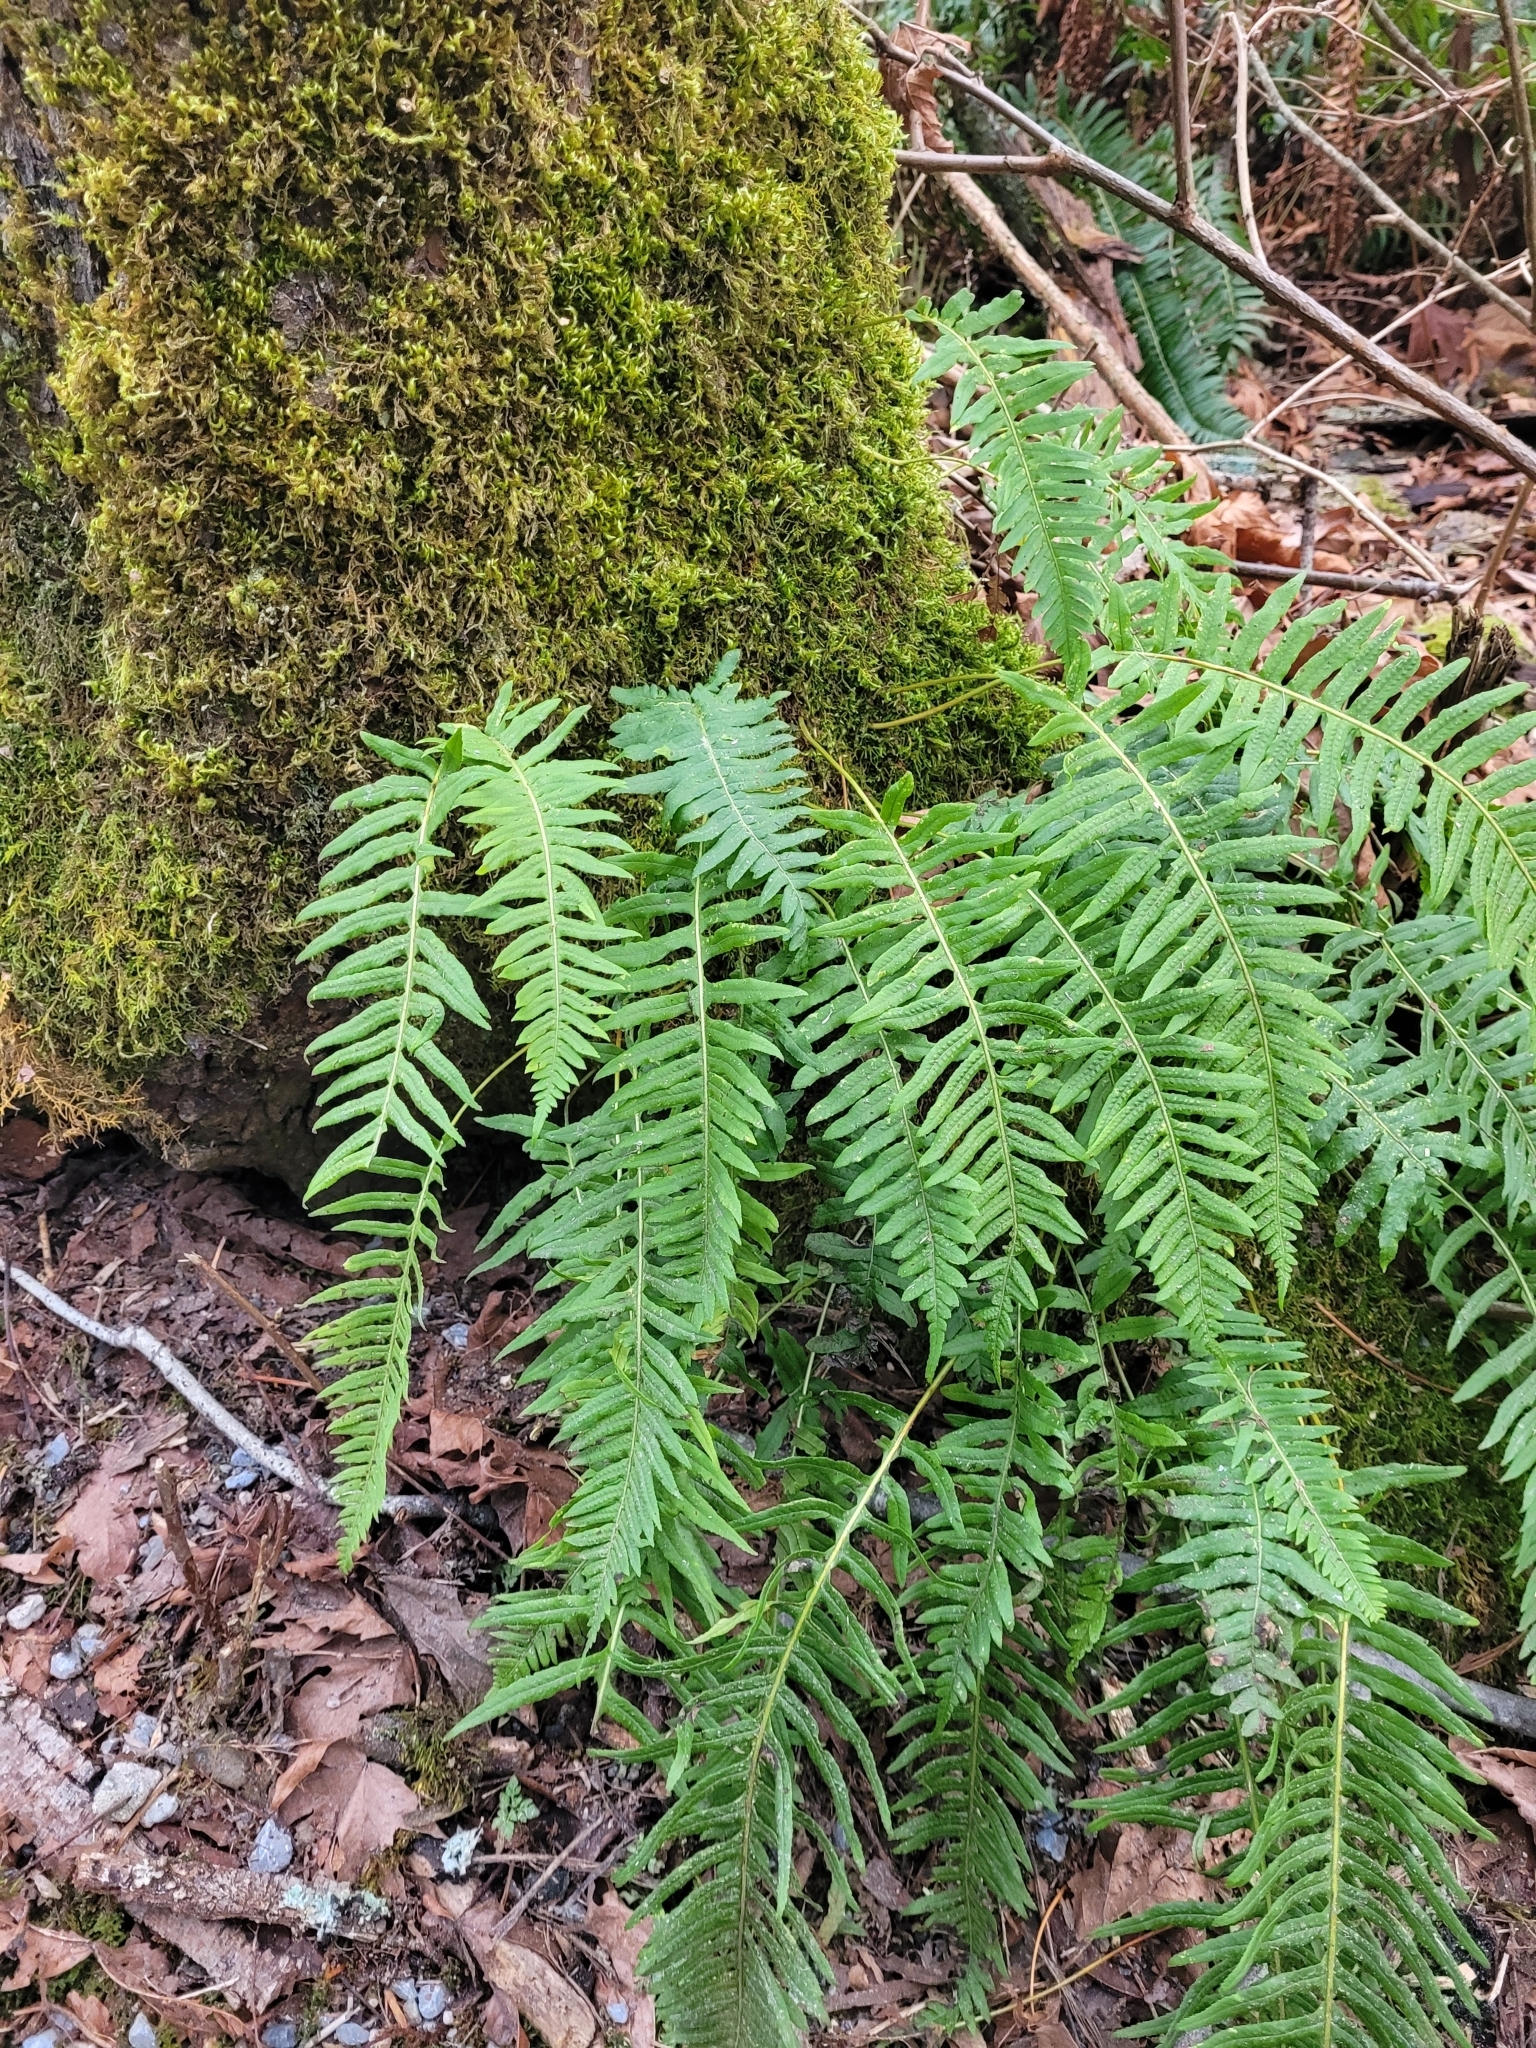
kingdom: Plantae
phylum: Tracheophyta
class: Polypodiopsida
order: Polypodiales
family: Polypodiaceae
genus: Polypodium
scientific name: Polypodium glycyrrhiza
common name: Licorice fern
